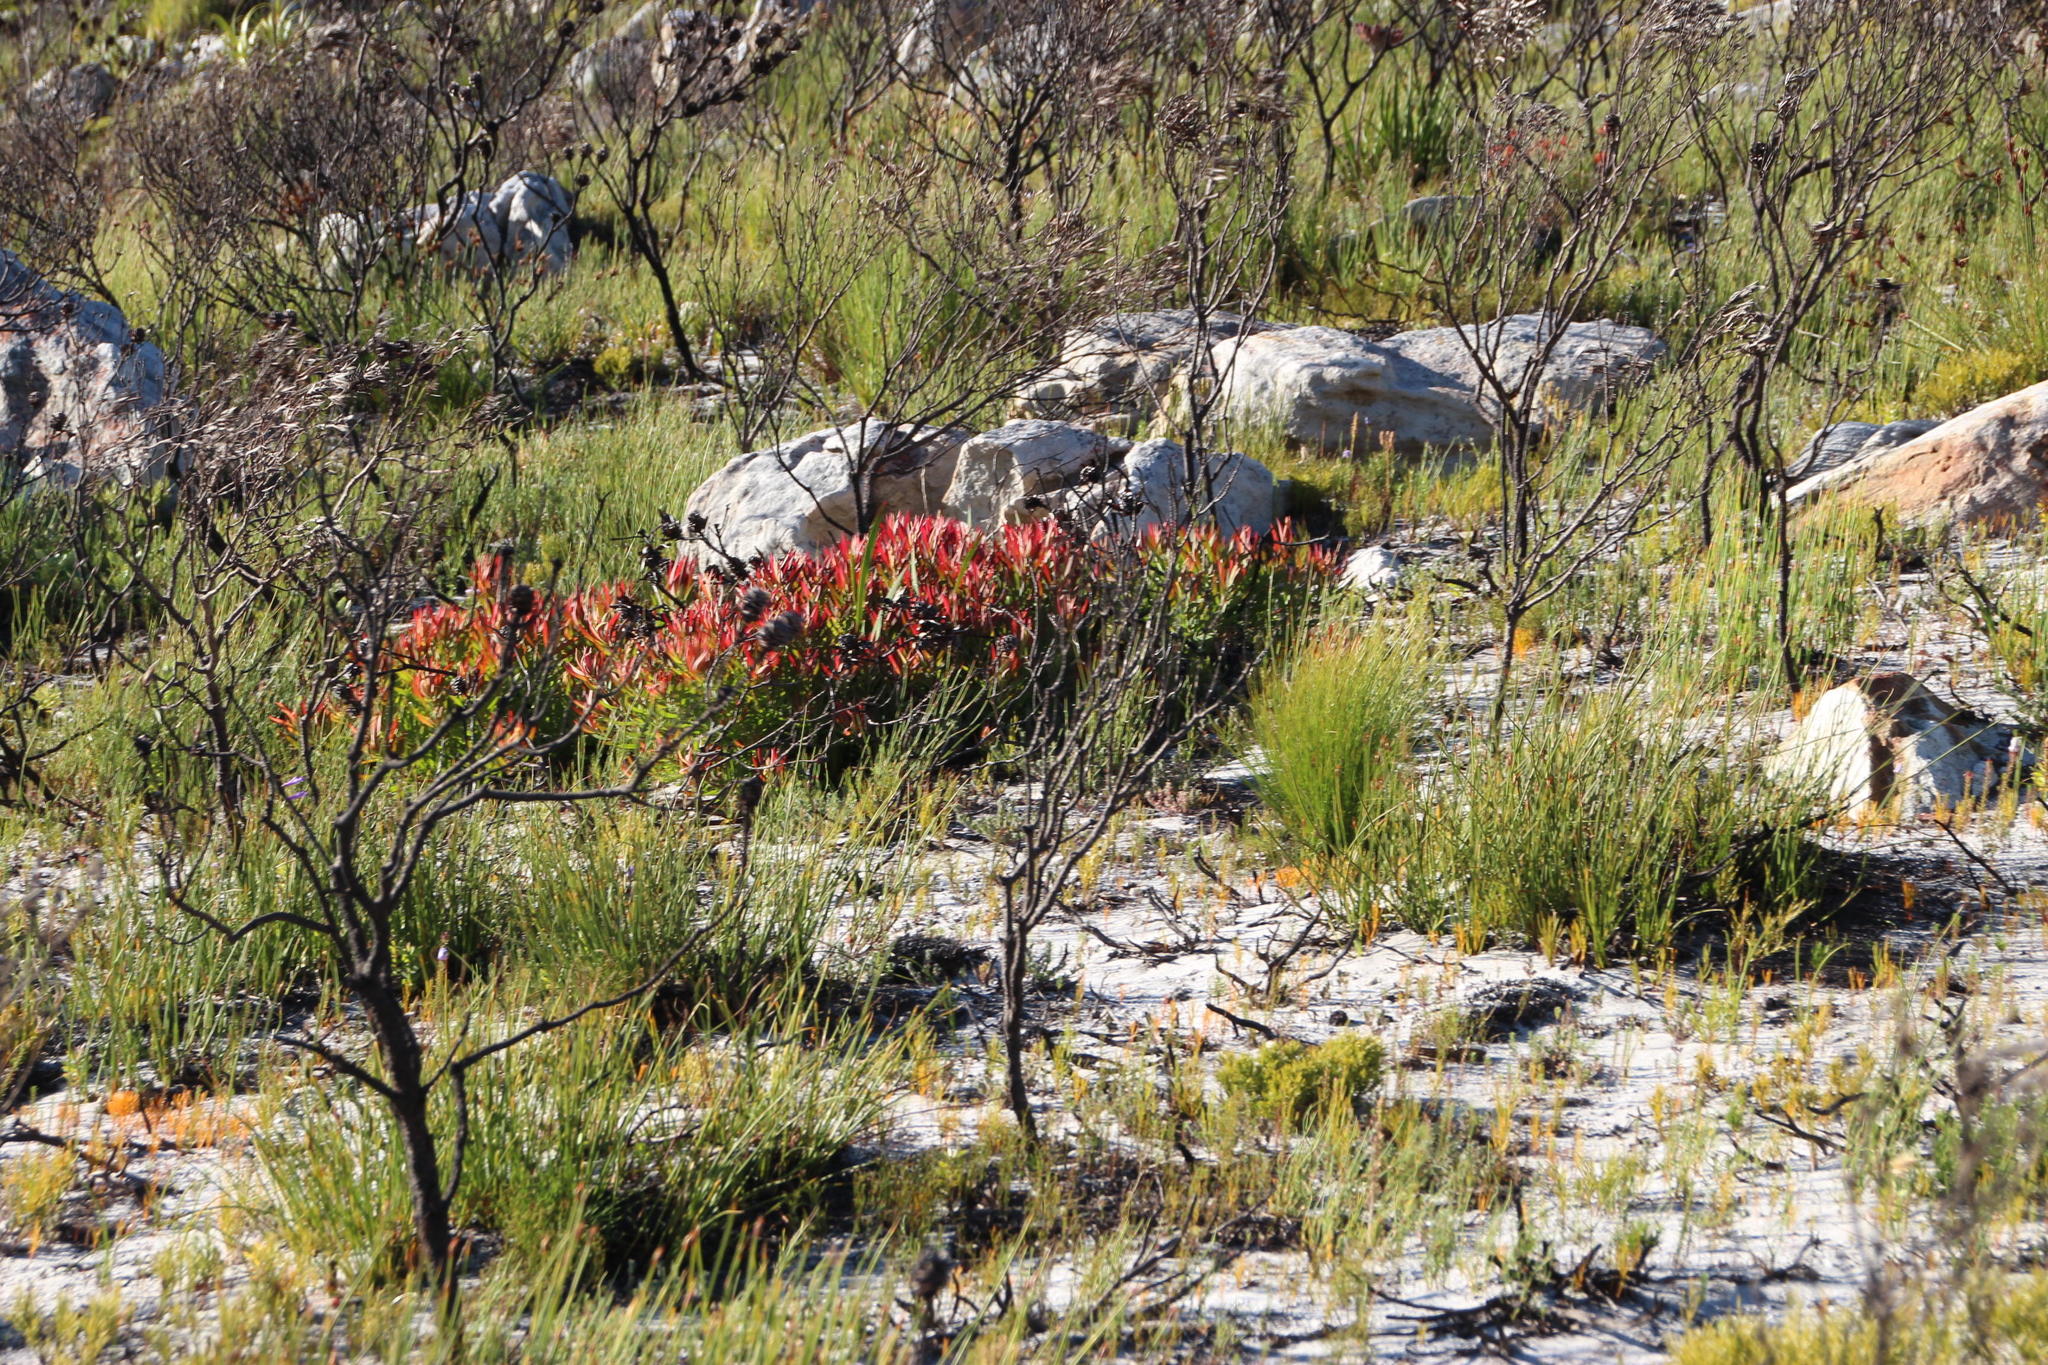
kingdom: Plantae
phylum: Tracheophyta
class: Magnoliopsida
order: Proteales
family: Proteaceae
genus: Leucadendron
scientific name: Leucadendron salignum
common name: Common sunshine conebush
